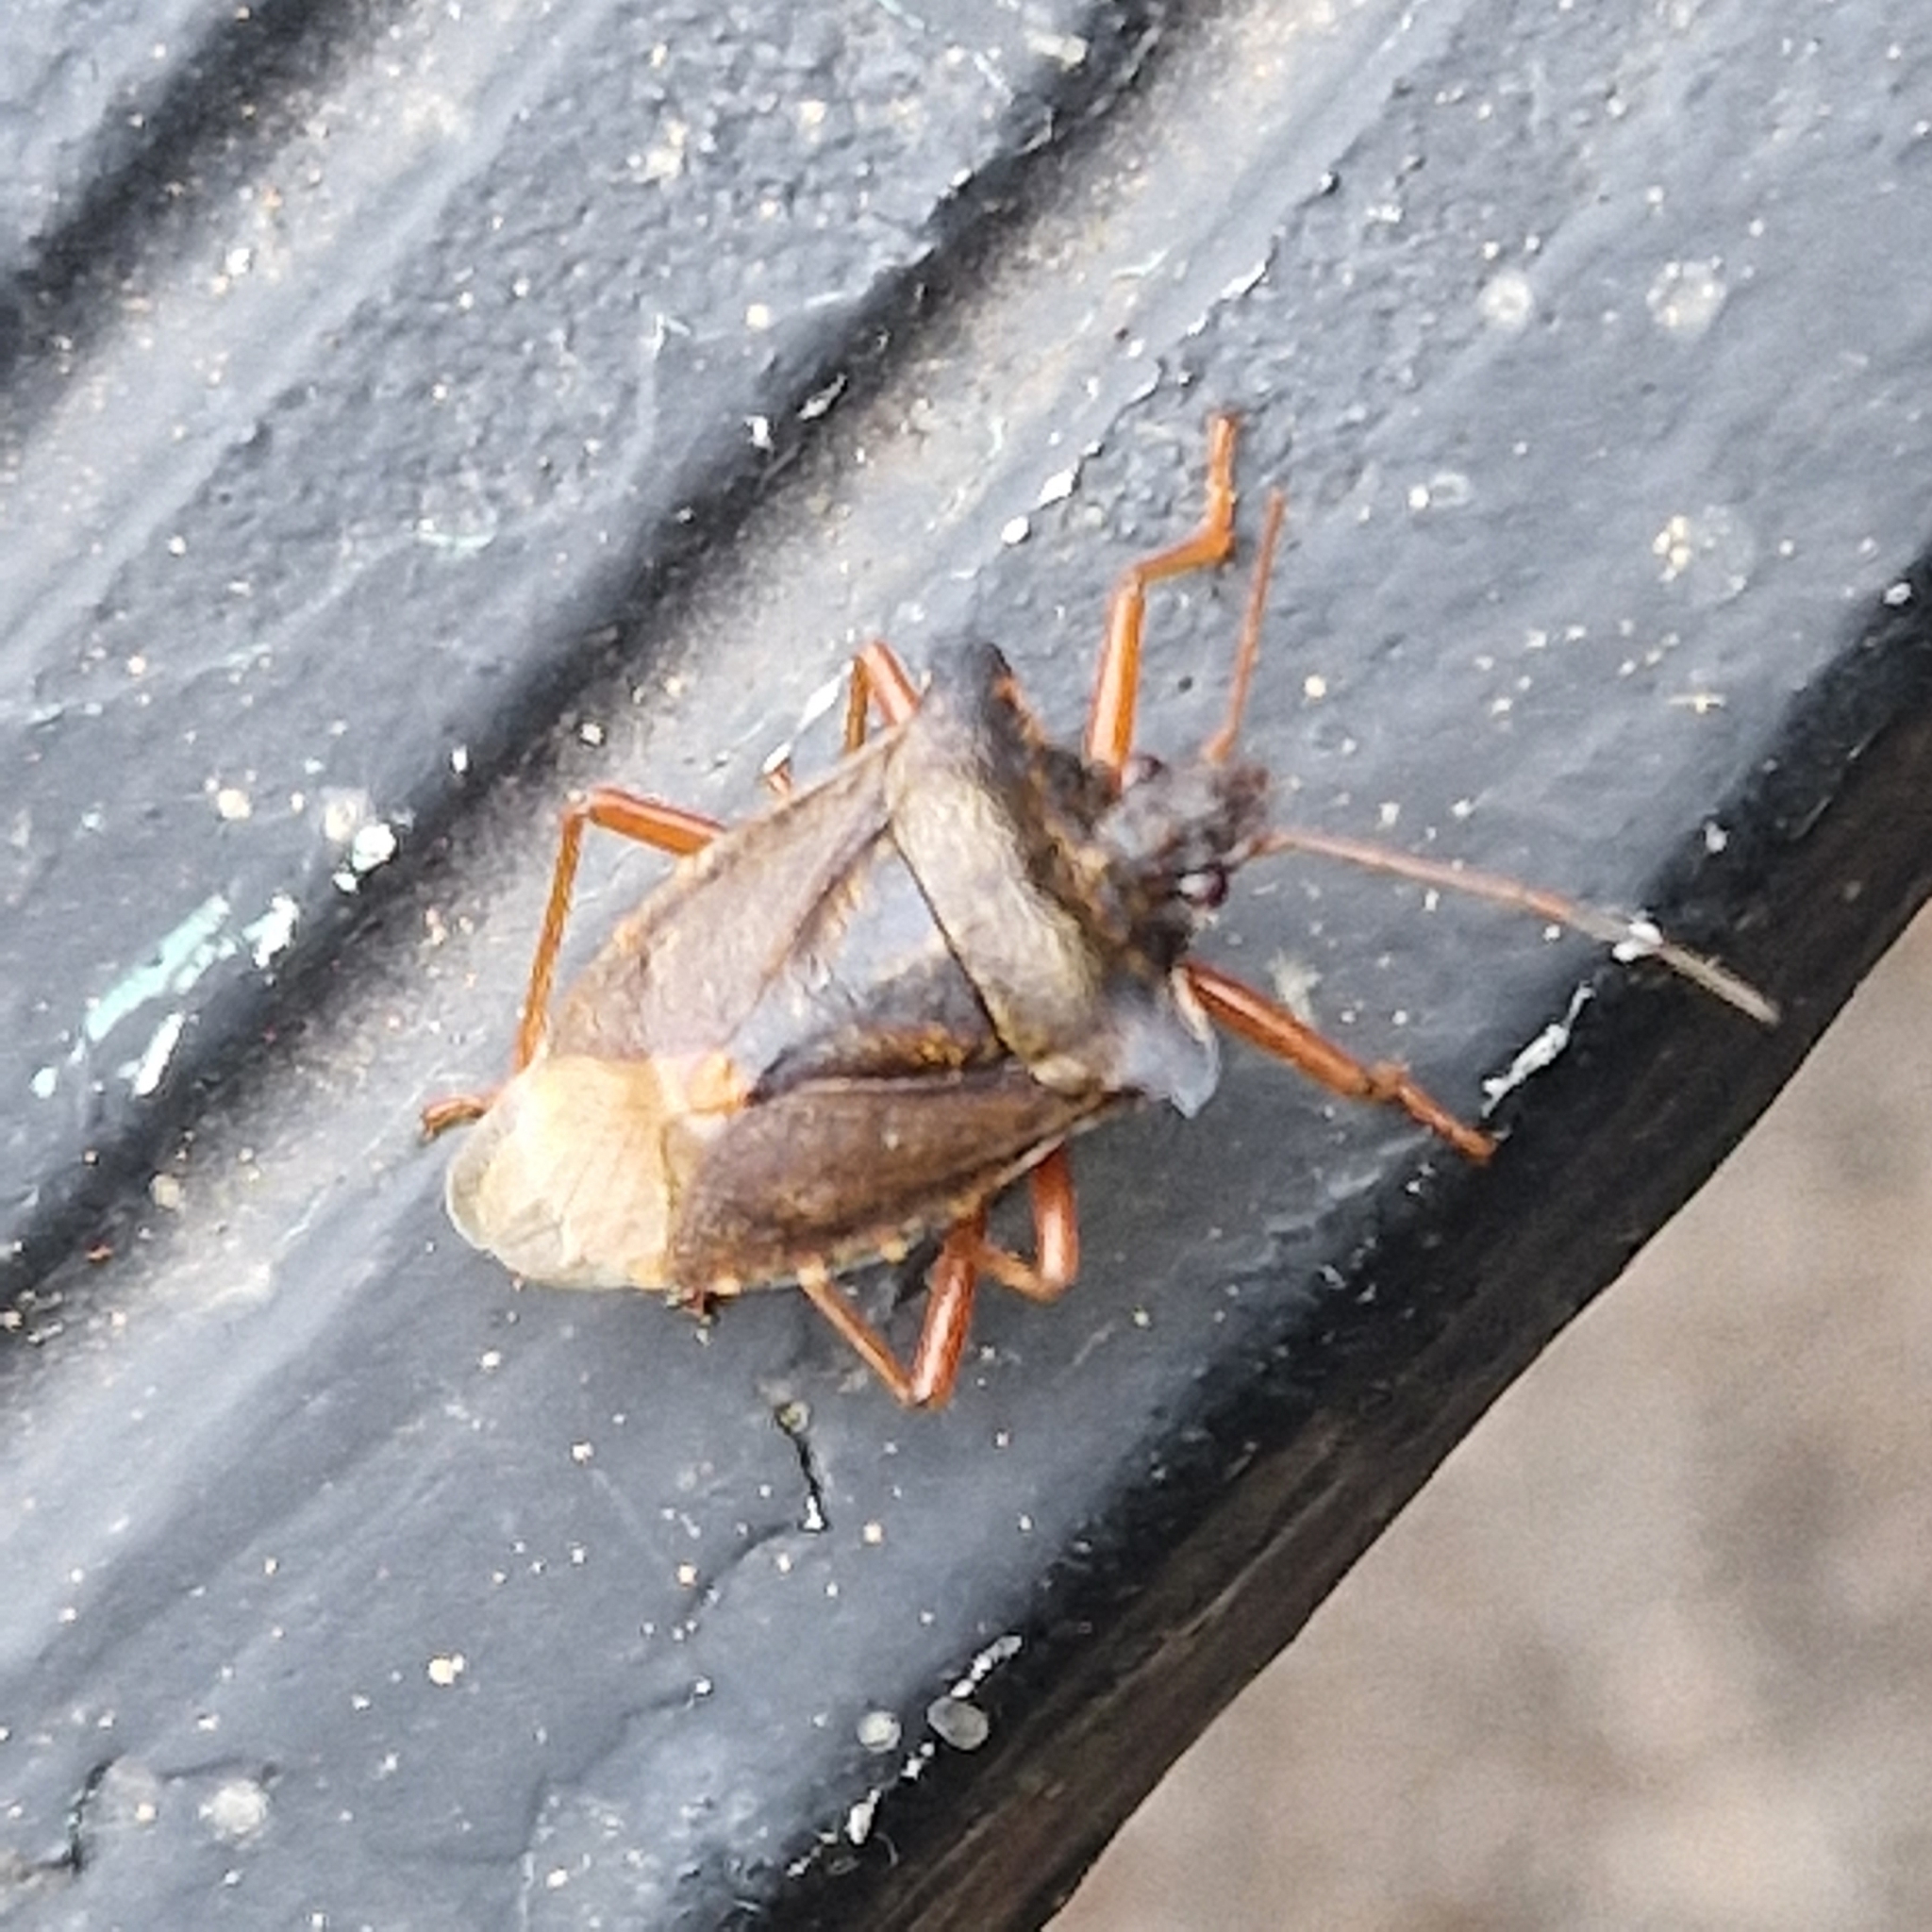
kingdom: Animalia
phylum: Arthropoda
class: Insecta
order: Hemiptera
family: Pentatomidae
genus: Pentatoma
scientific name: Pentatoma rufipes
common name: Forest bug
